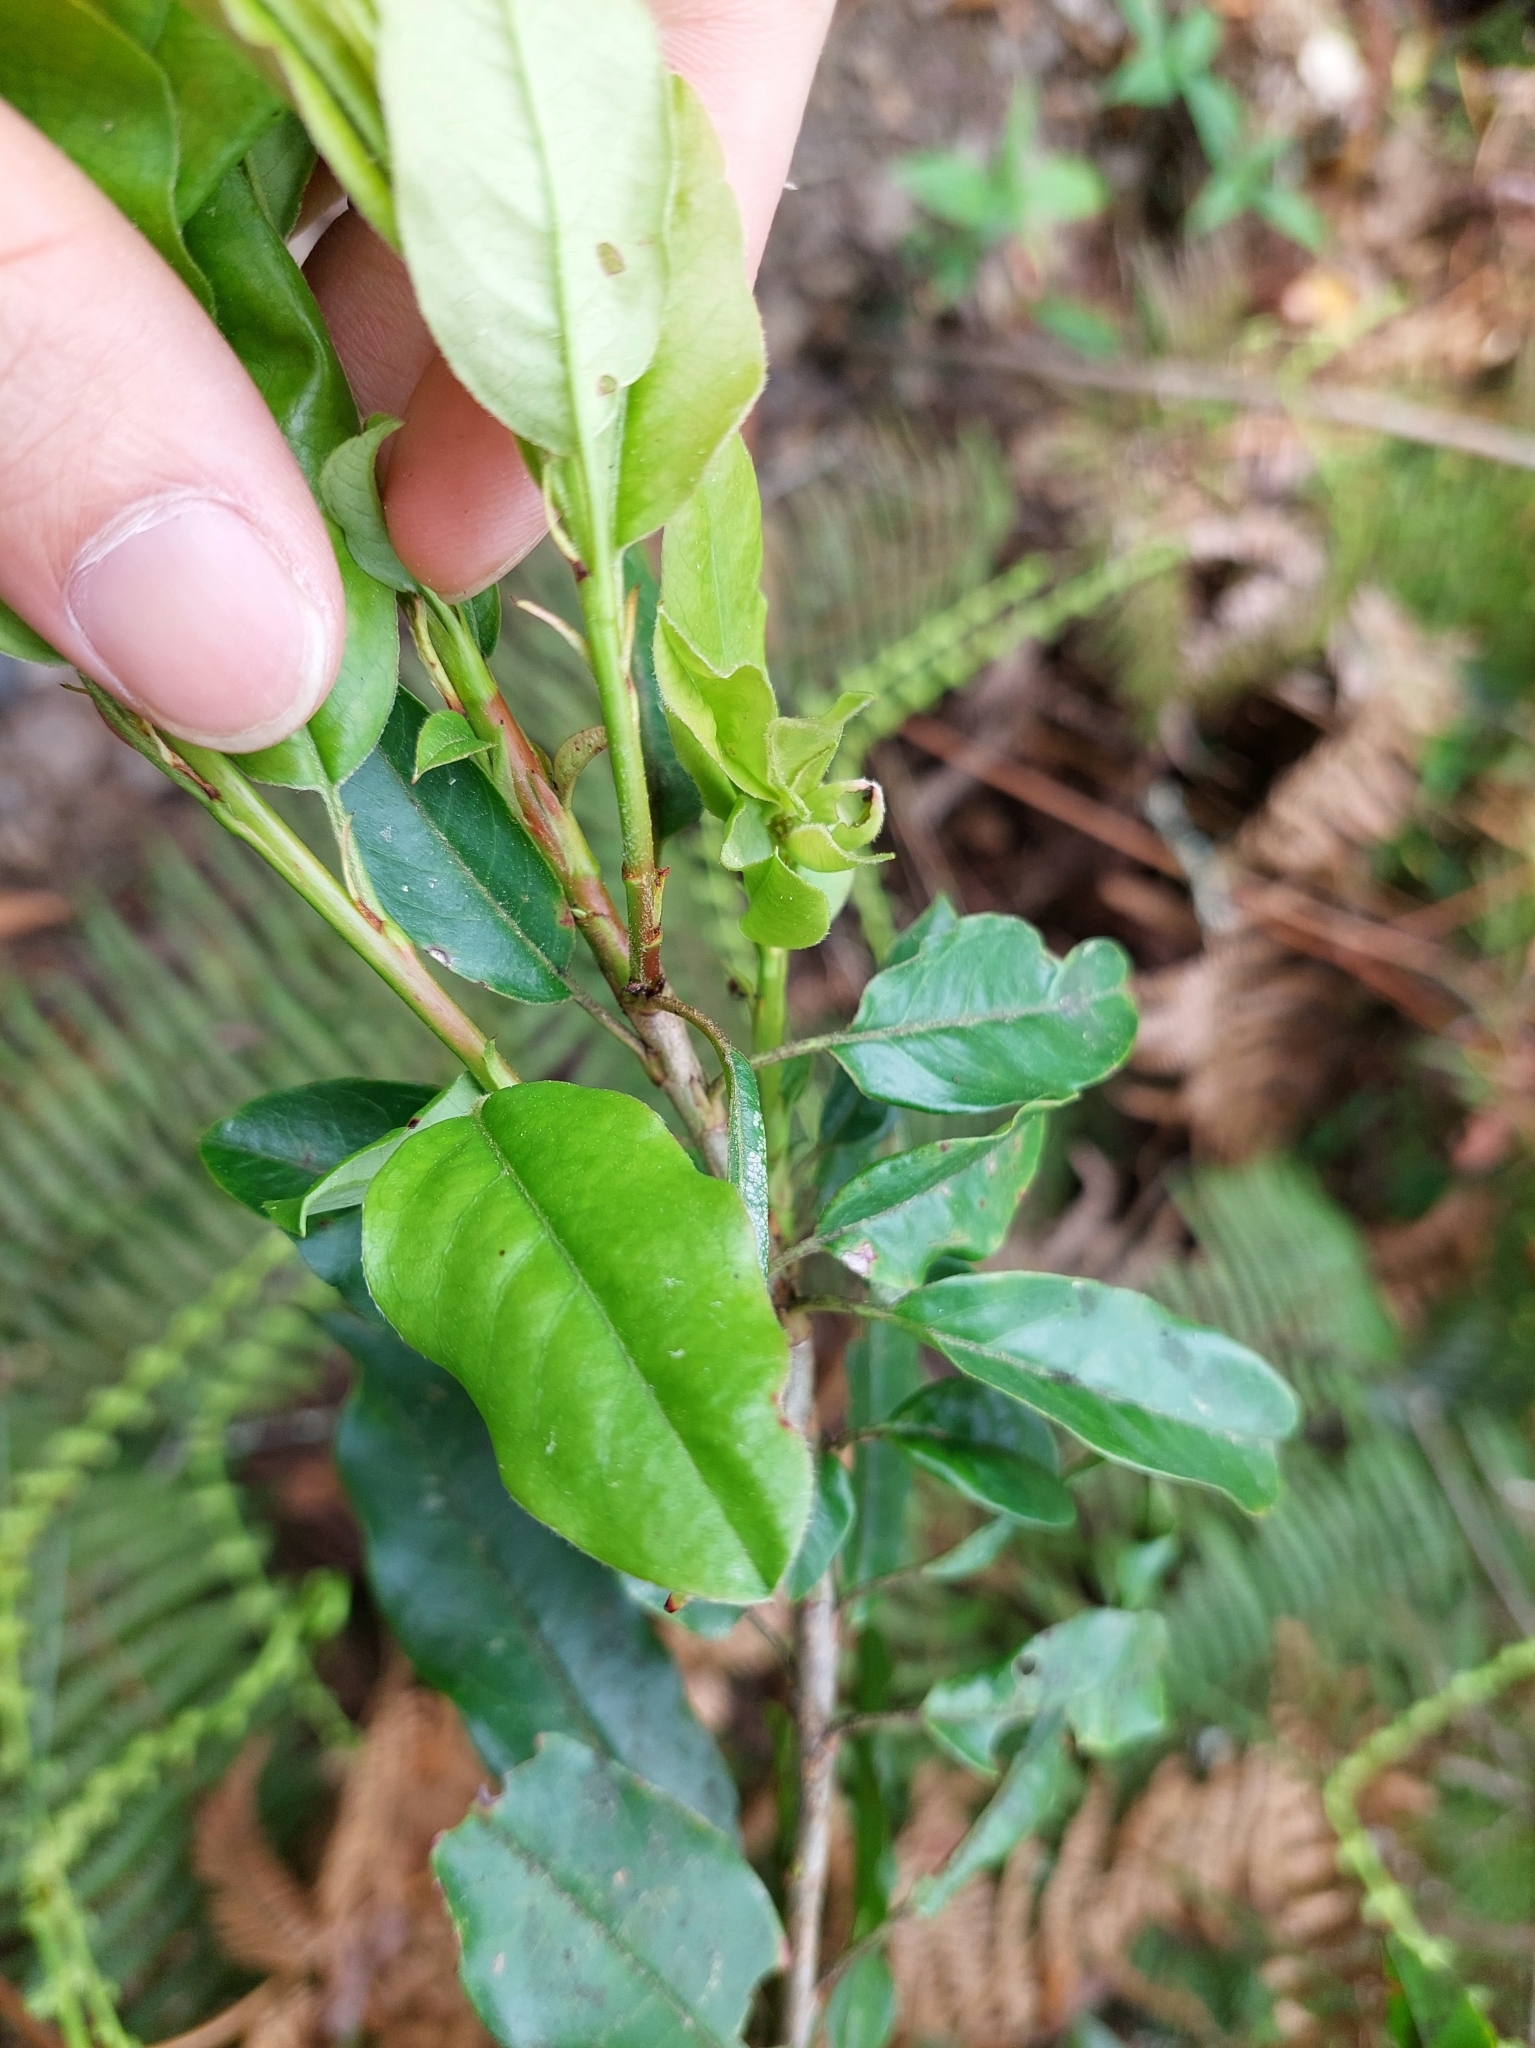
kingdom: Plantae
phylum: Tracheophyta
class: Magnoliopsida
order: Rosales
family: Rosaceae
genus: Stranvaesia
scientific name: Stranvaesia davidiana
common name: Chinese photinia
